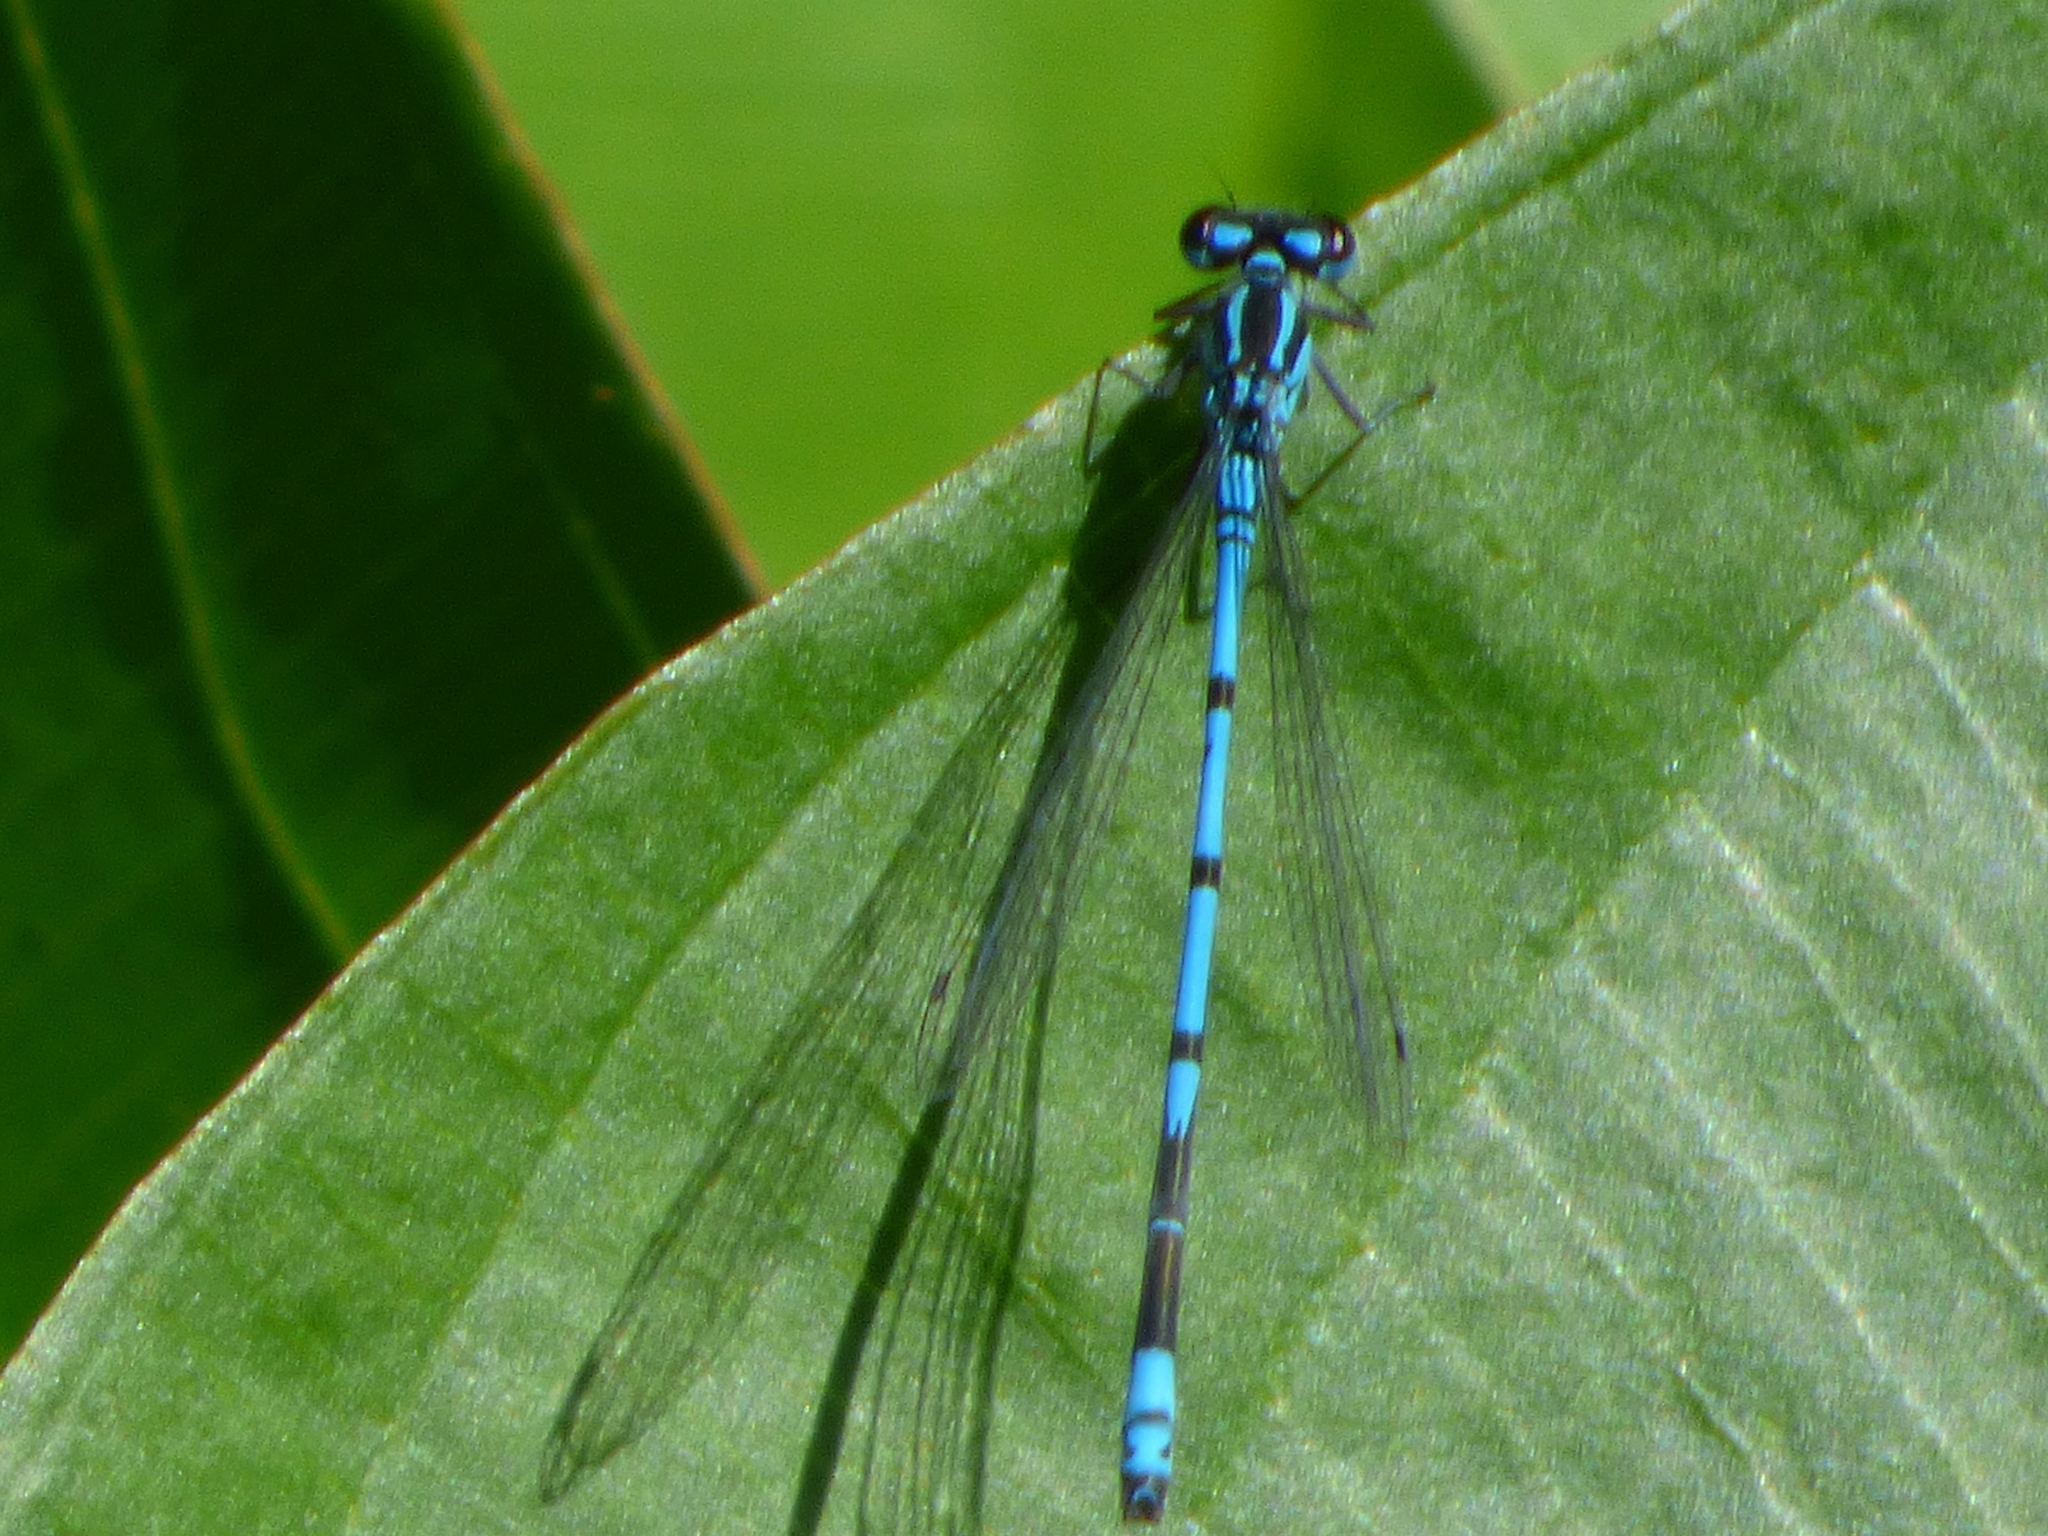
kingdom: Animalia
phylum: Arthropoda
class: Insecta
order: Odonata
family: Coenagrionidae
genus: Coenagrion
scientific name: Coenagrion puella
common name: Azure damselfly
